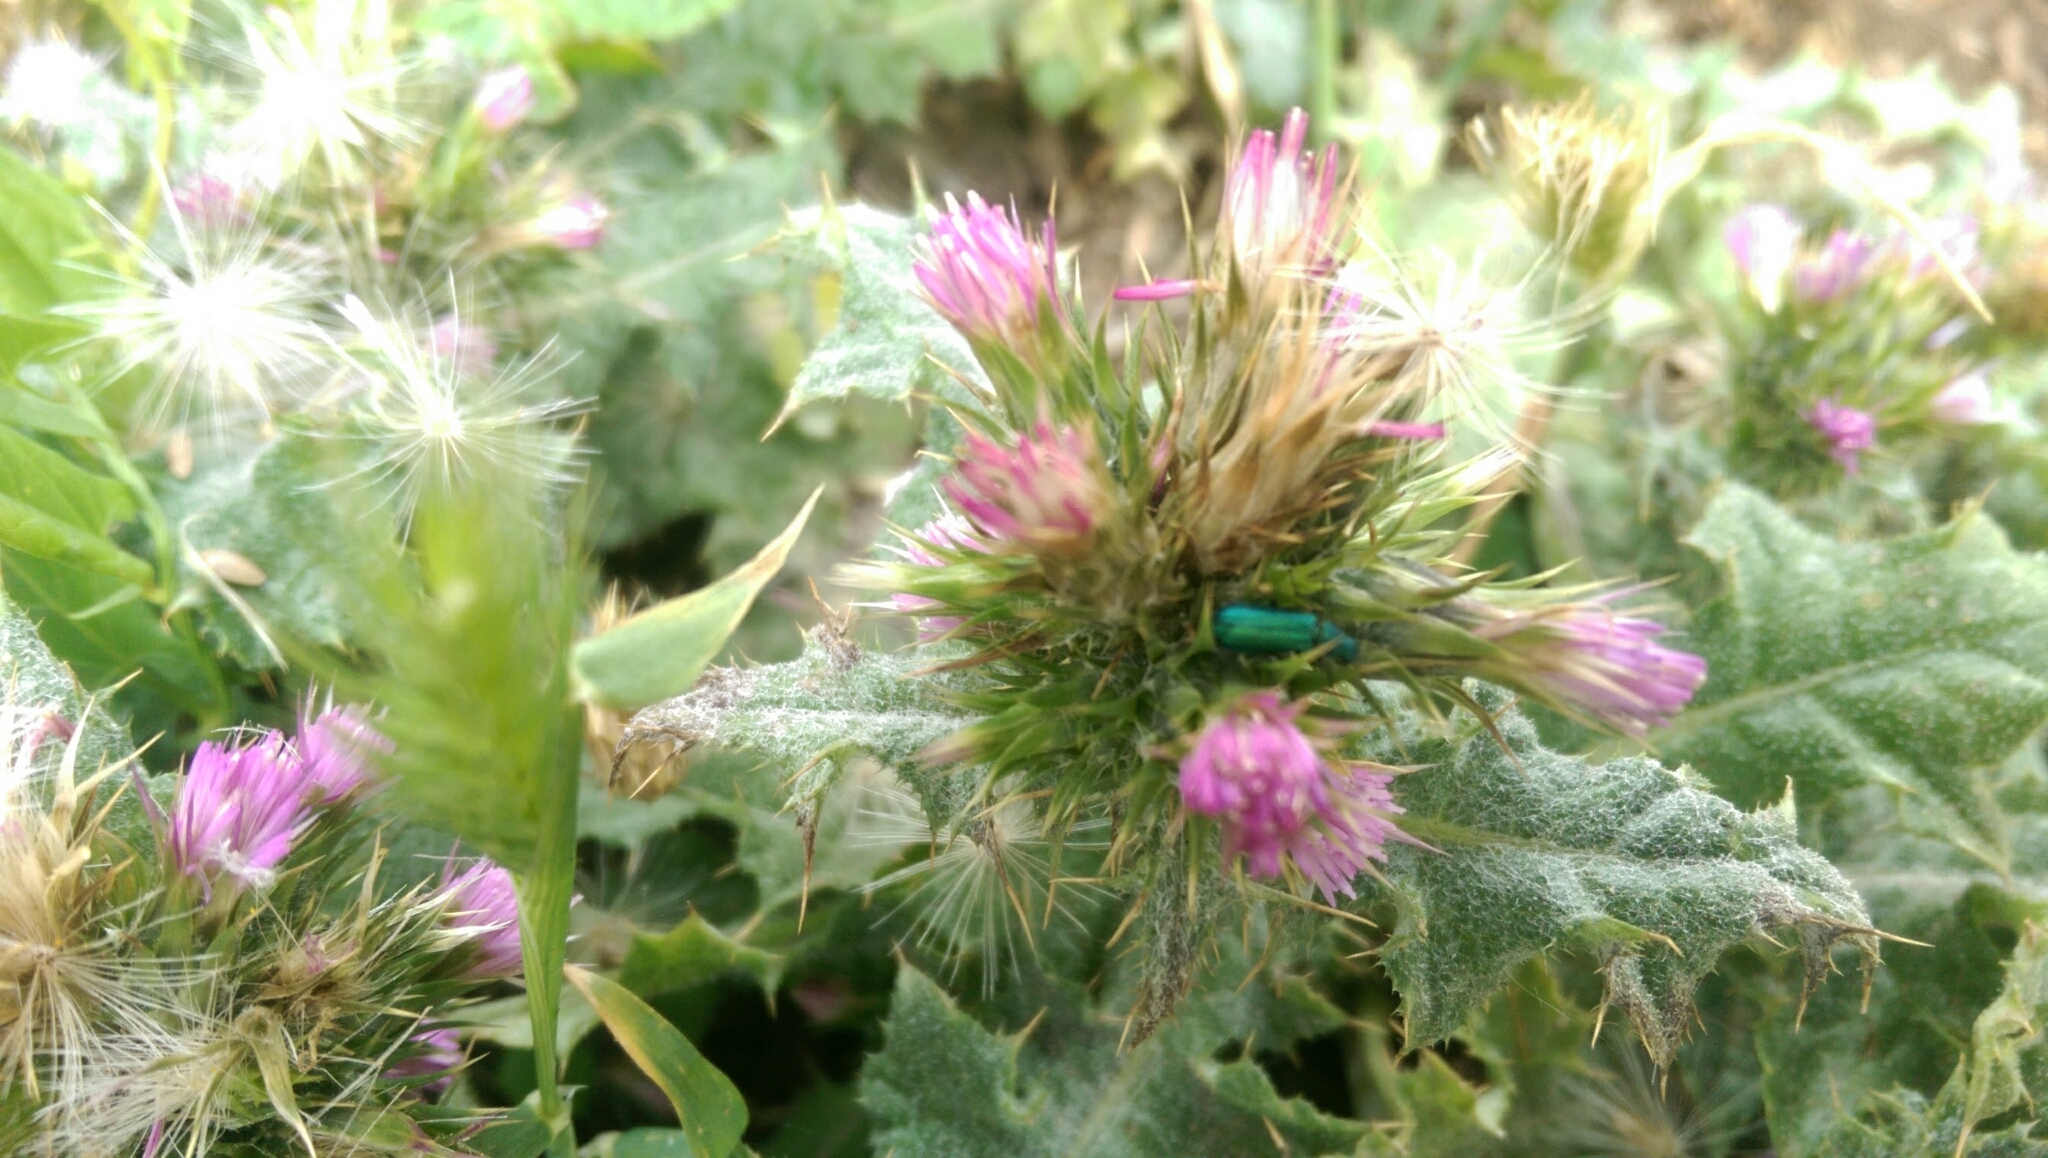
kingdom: Animalia
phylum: Arthropoda
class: Insecta
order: Coleoptera
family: Dasytidae
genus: Psilothrix
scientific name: Psilothrix viridicoerulea
